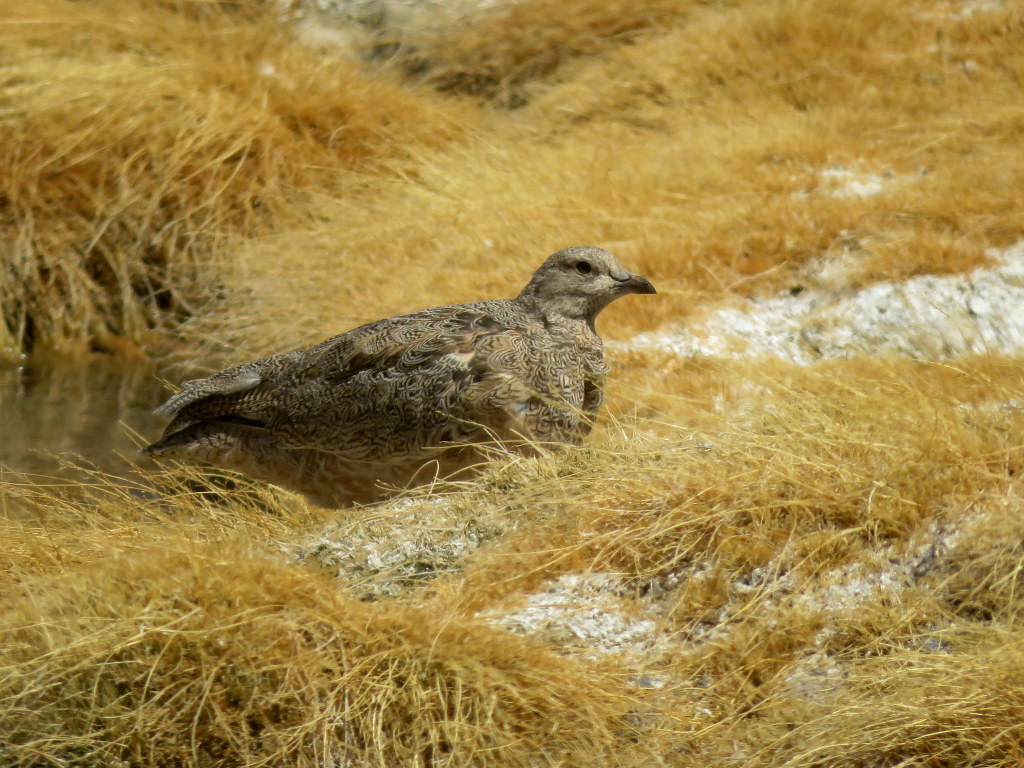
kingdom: Animalia
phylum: Chordata
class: Aves
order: Charadriiformes
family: Thinocoridae
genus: Attagis
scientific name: Attagis gayi
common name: Rufous-bellied seedsnipe
